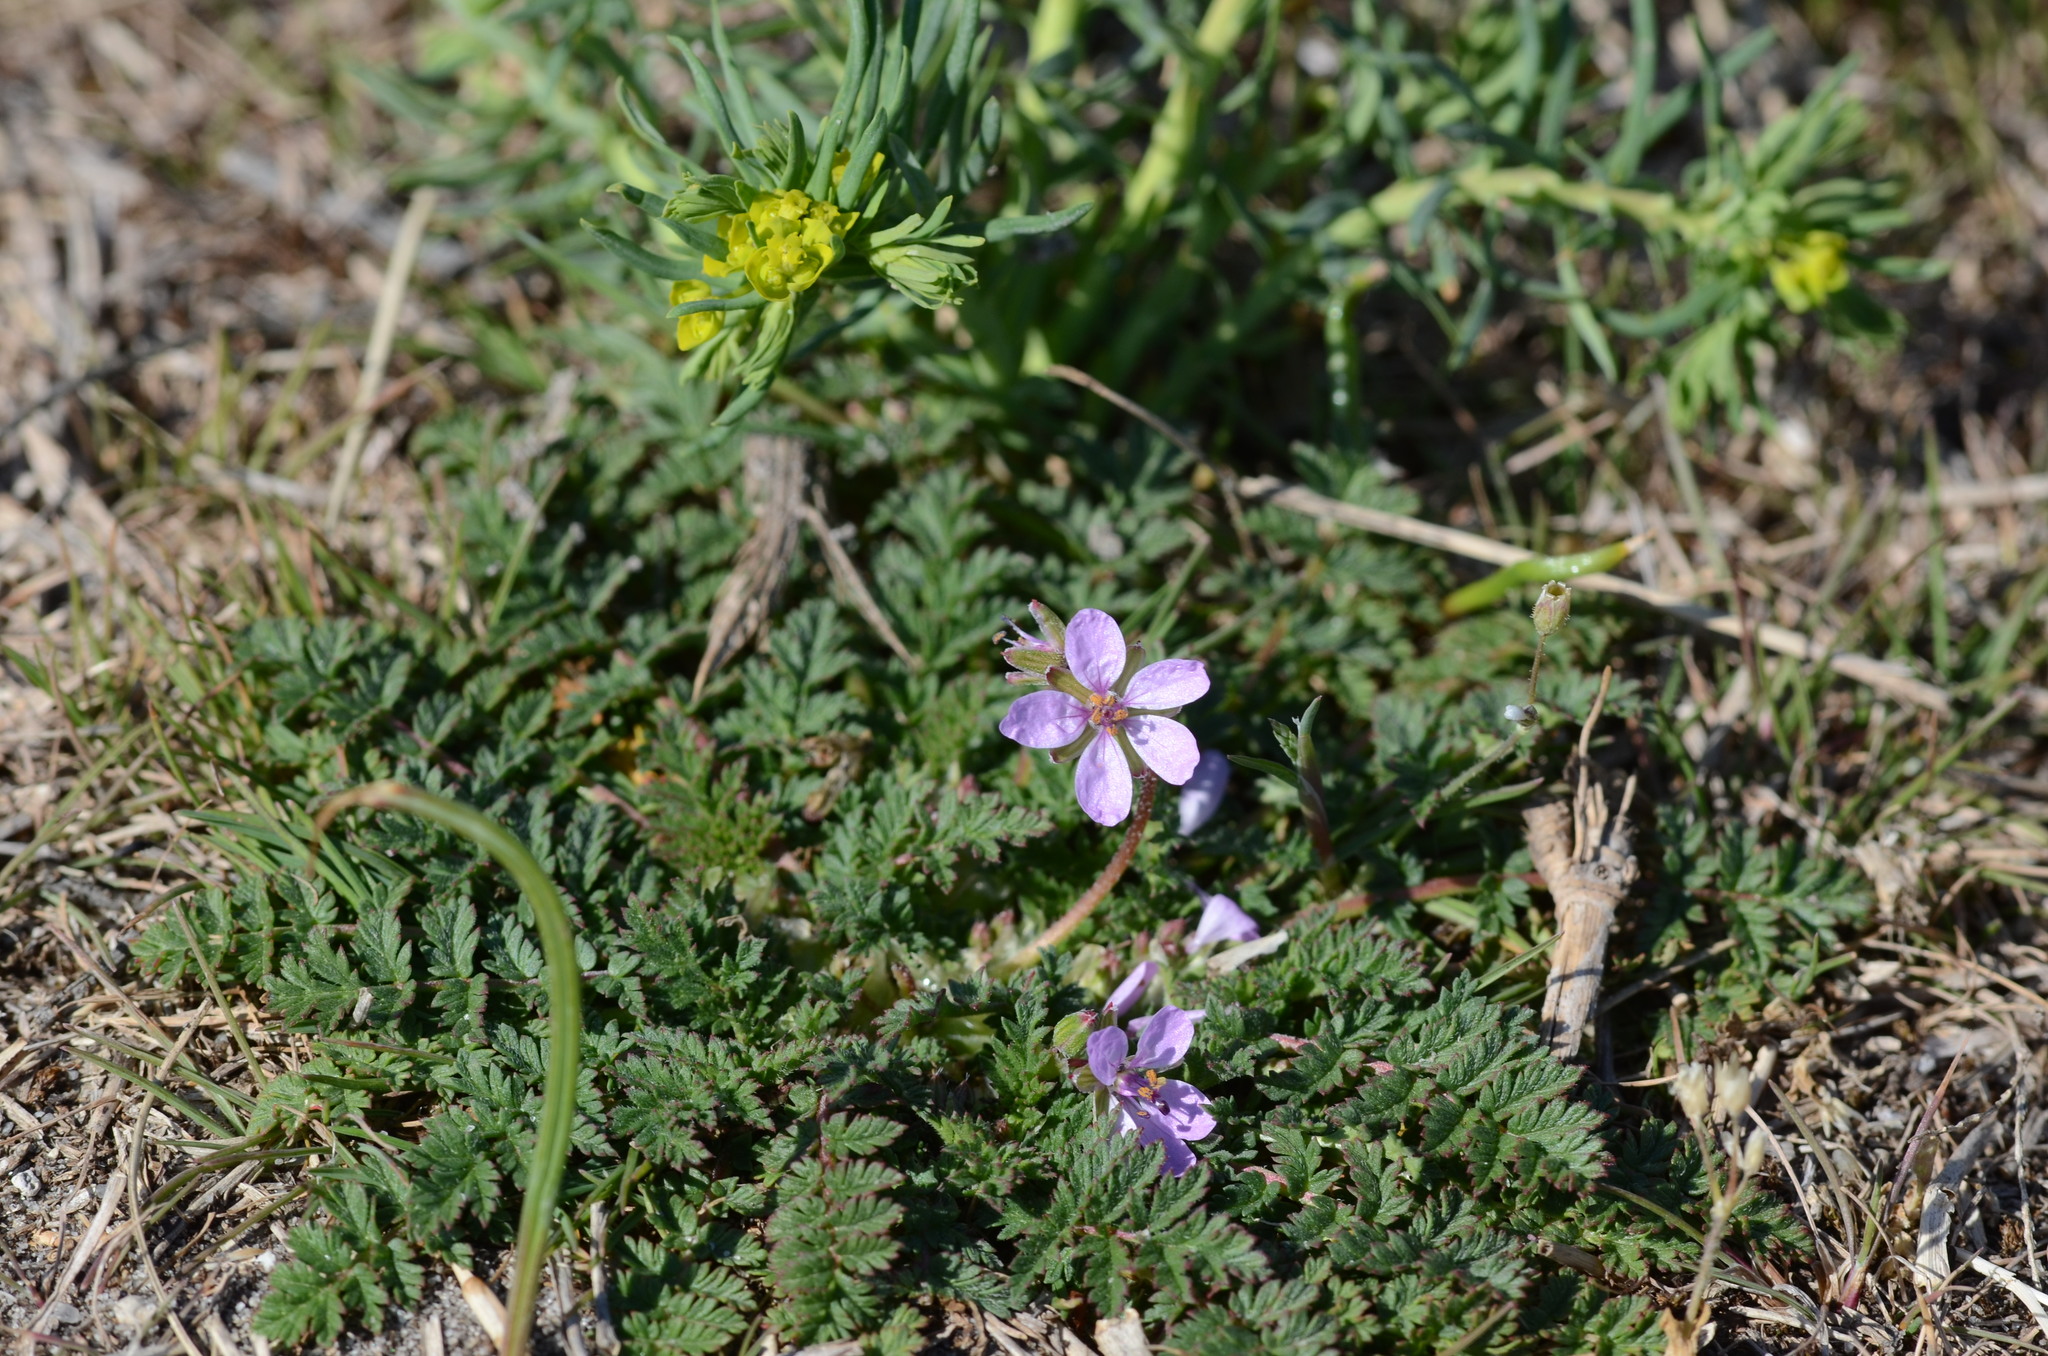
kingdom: Plantae
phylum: Tracheophyta
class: Magnoliopsida
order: Geraniales
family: Geraniaceae
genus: Erodium
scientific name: Erodium cicutarium
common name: Common stork's-bill
